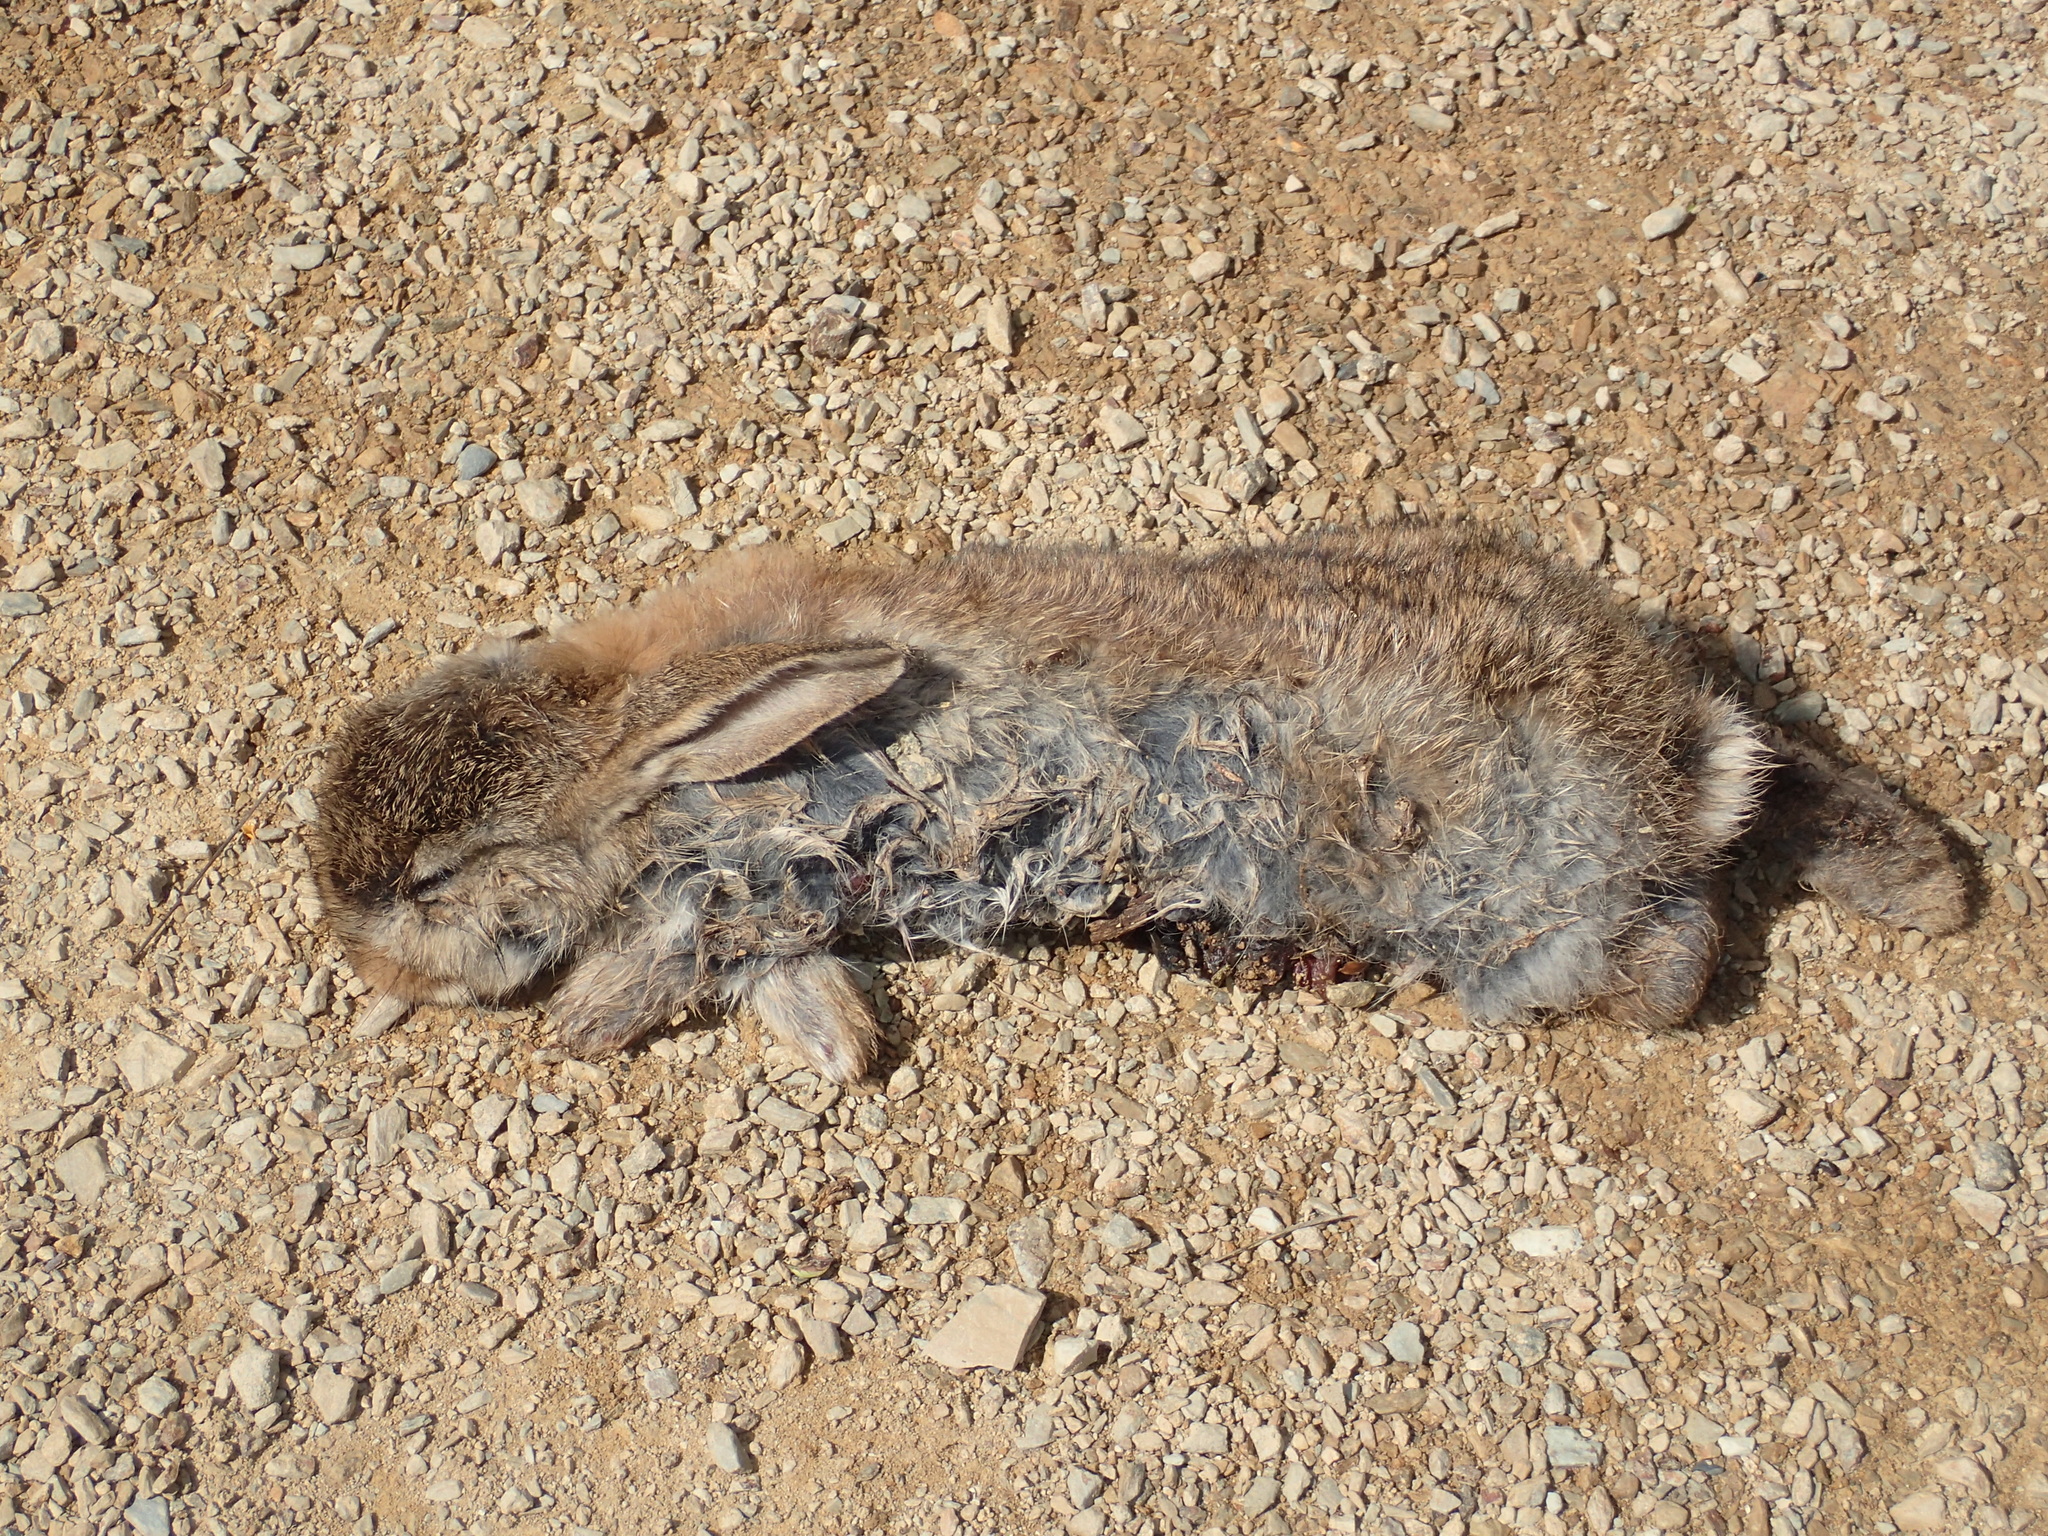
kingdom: Animalia
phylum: Chordata
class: Mammalia
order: Lagomorpha
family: Leporidae
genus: Oryctolagus
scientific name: Oryctolagus cuniculus
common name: European rabbit
